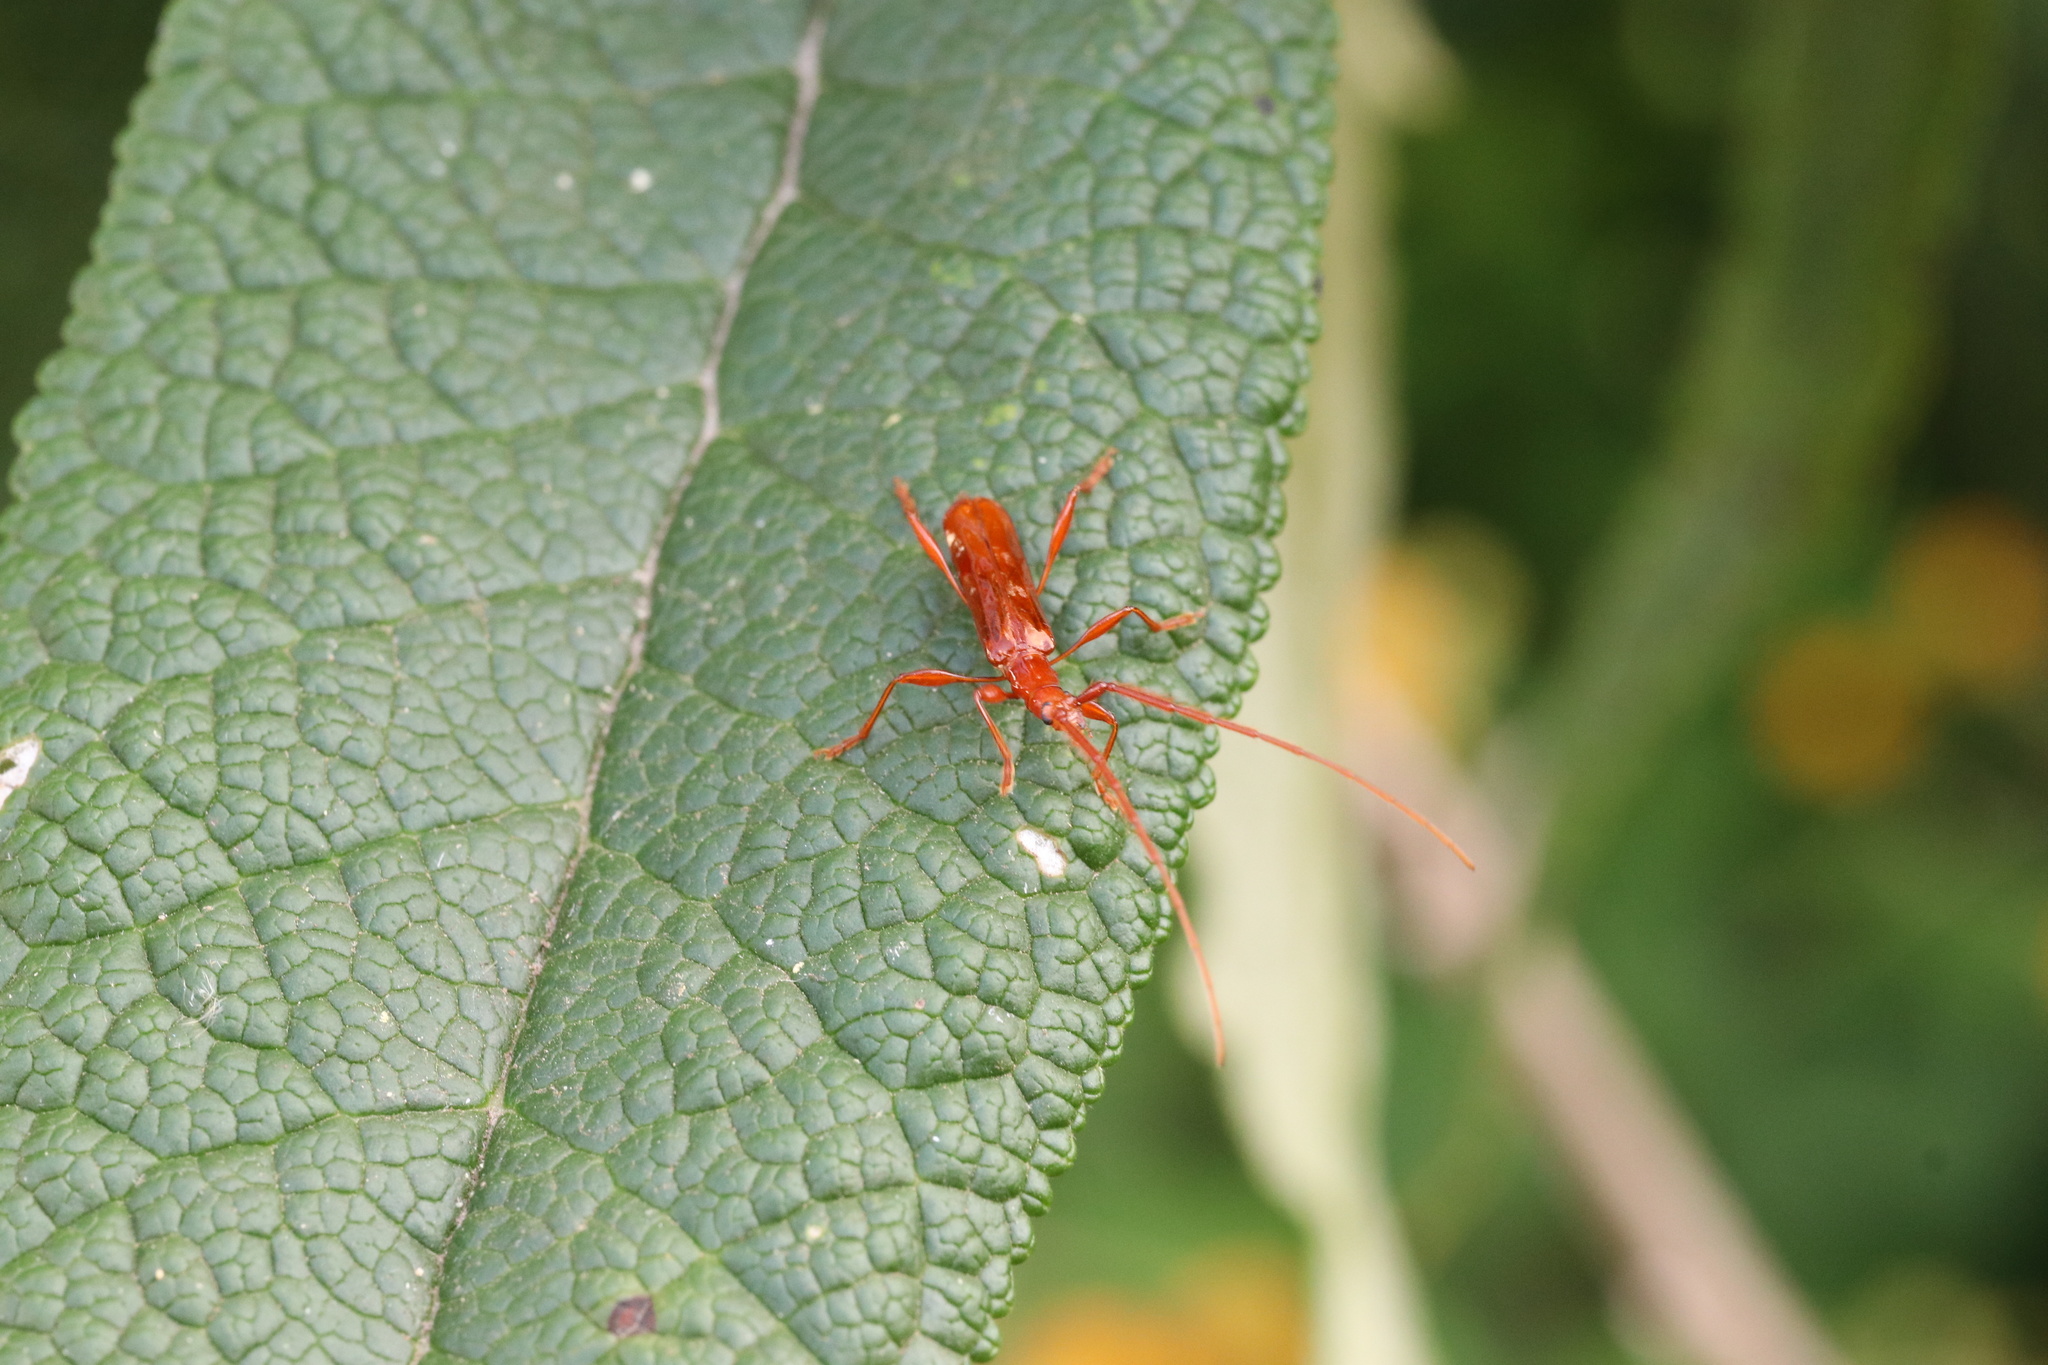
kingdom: Animalia
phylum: Arthropoda
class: Insecta
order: Coleoptera
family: Cerambycidae
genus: Chenoderus
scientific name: Chenoderus testaceus
